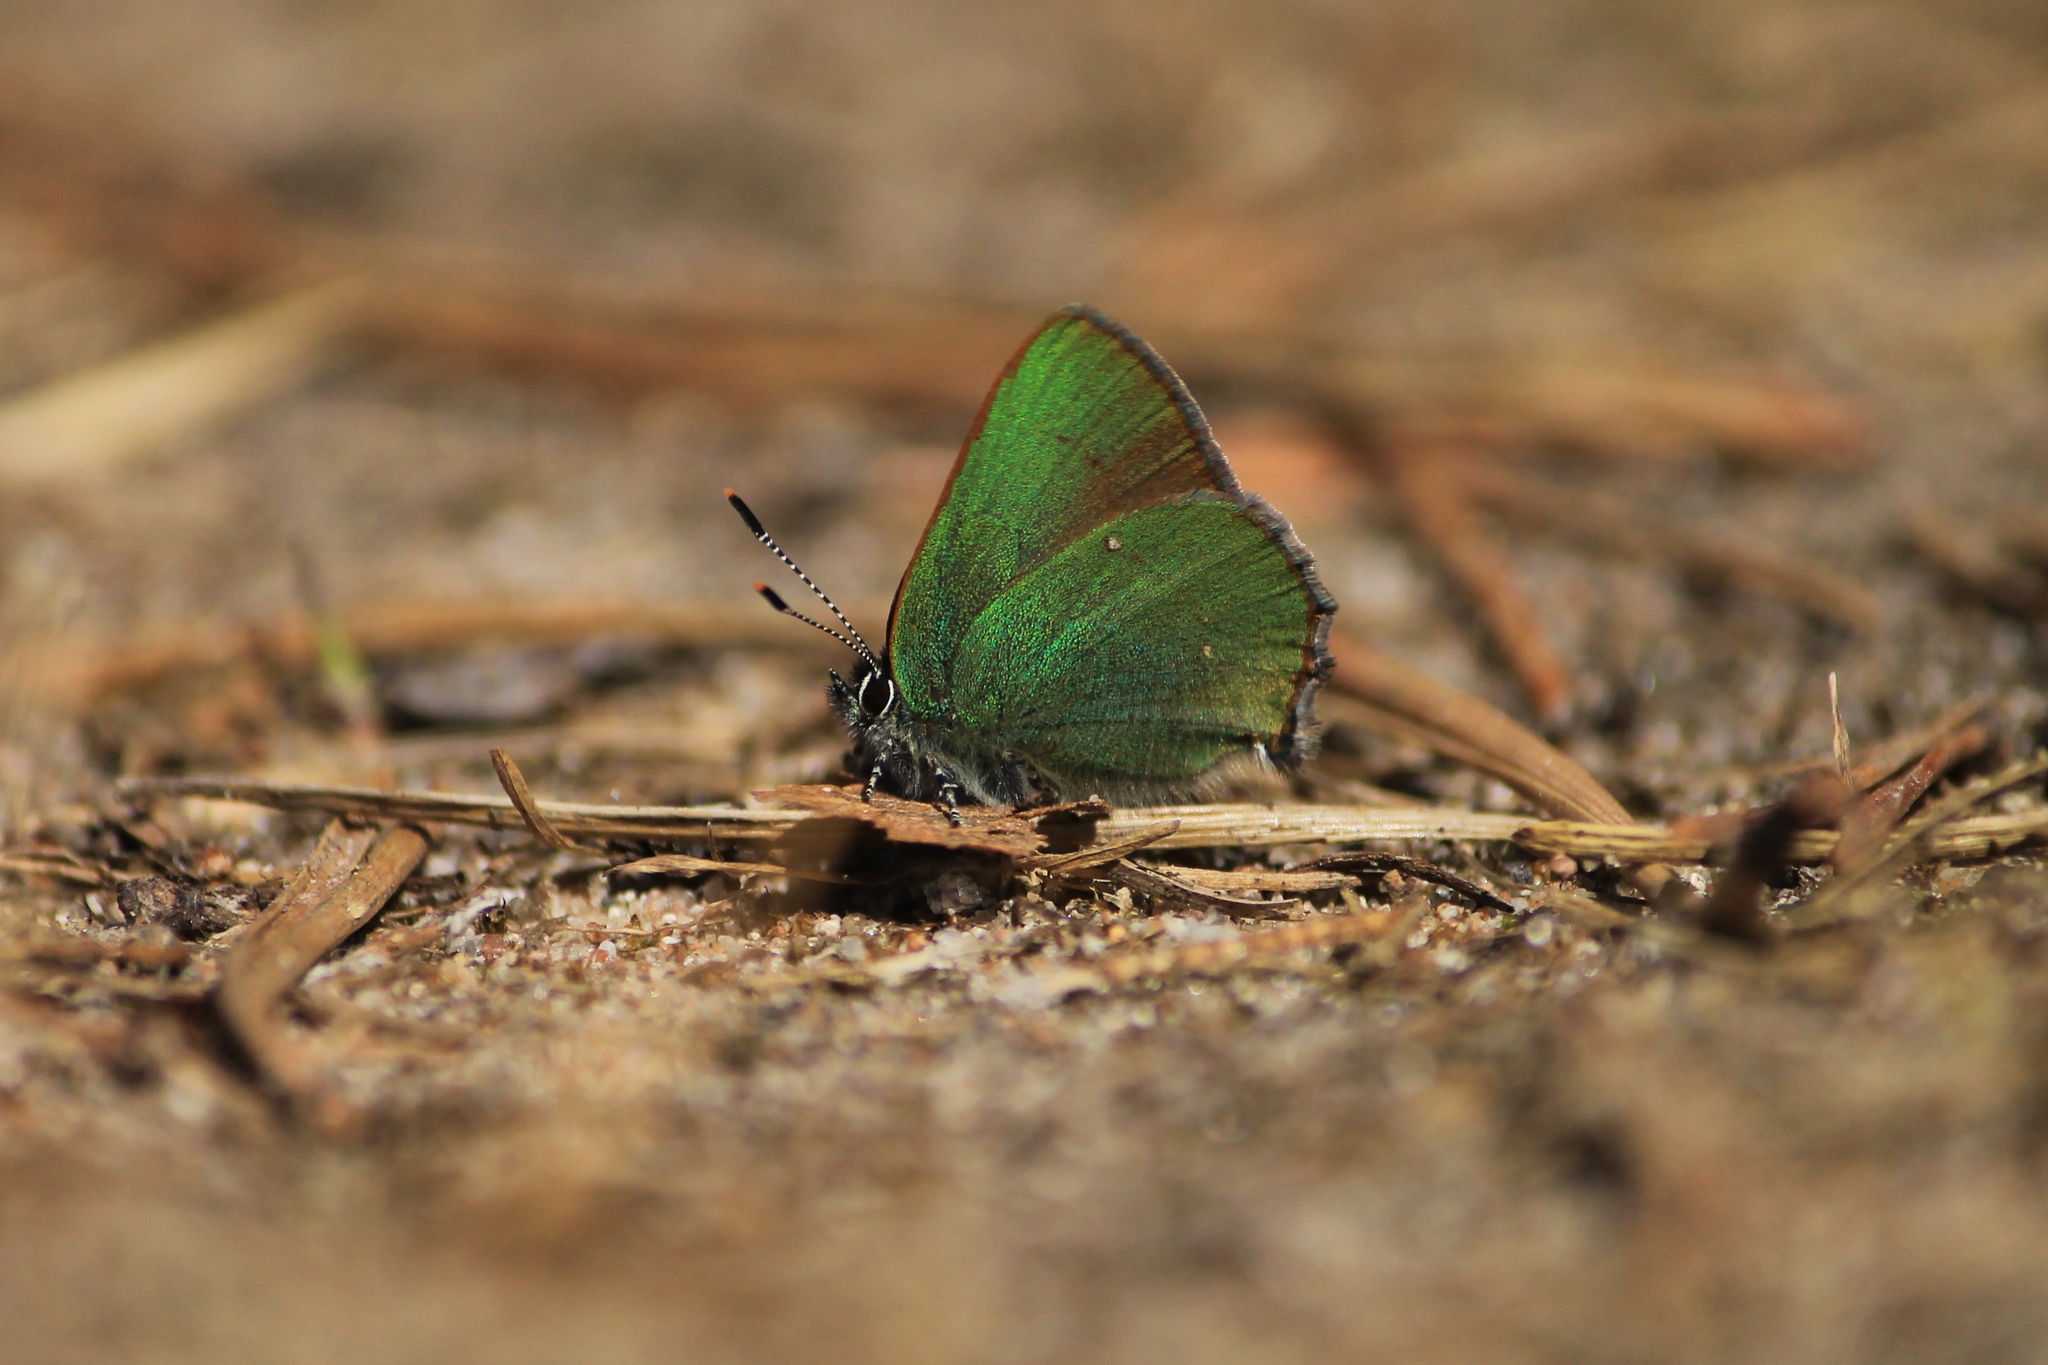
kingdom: Animalia
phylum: Arthropoda
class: Insecta
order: Lepidoptera
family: Lycaenidae
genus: Callophrys
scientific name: Callophrys rubi
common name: Green hairstreak
